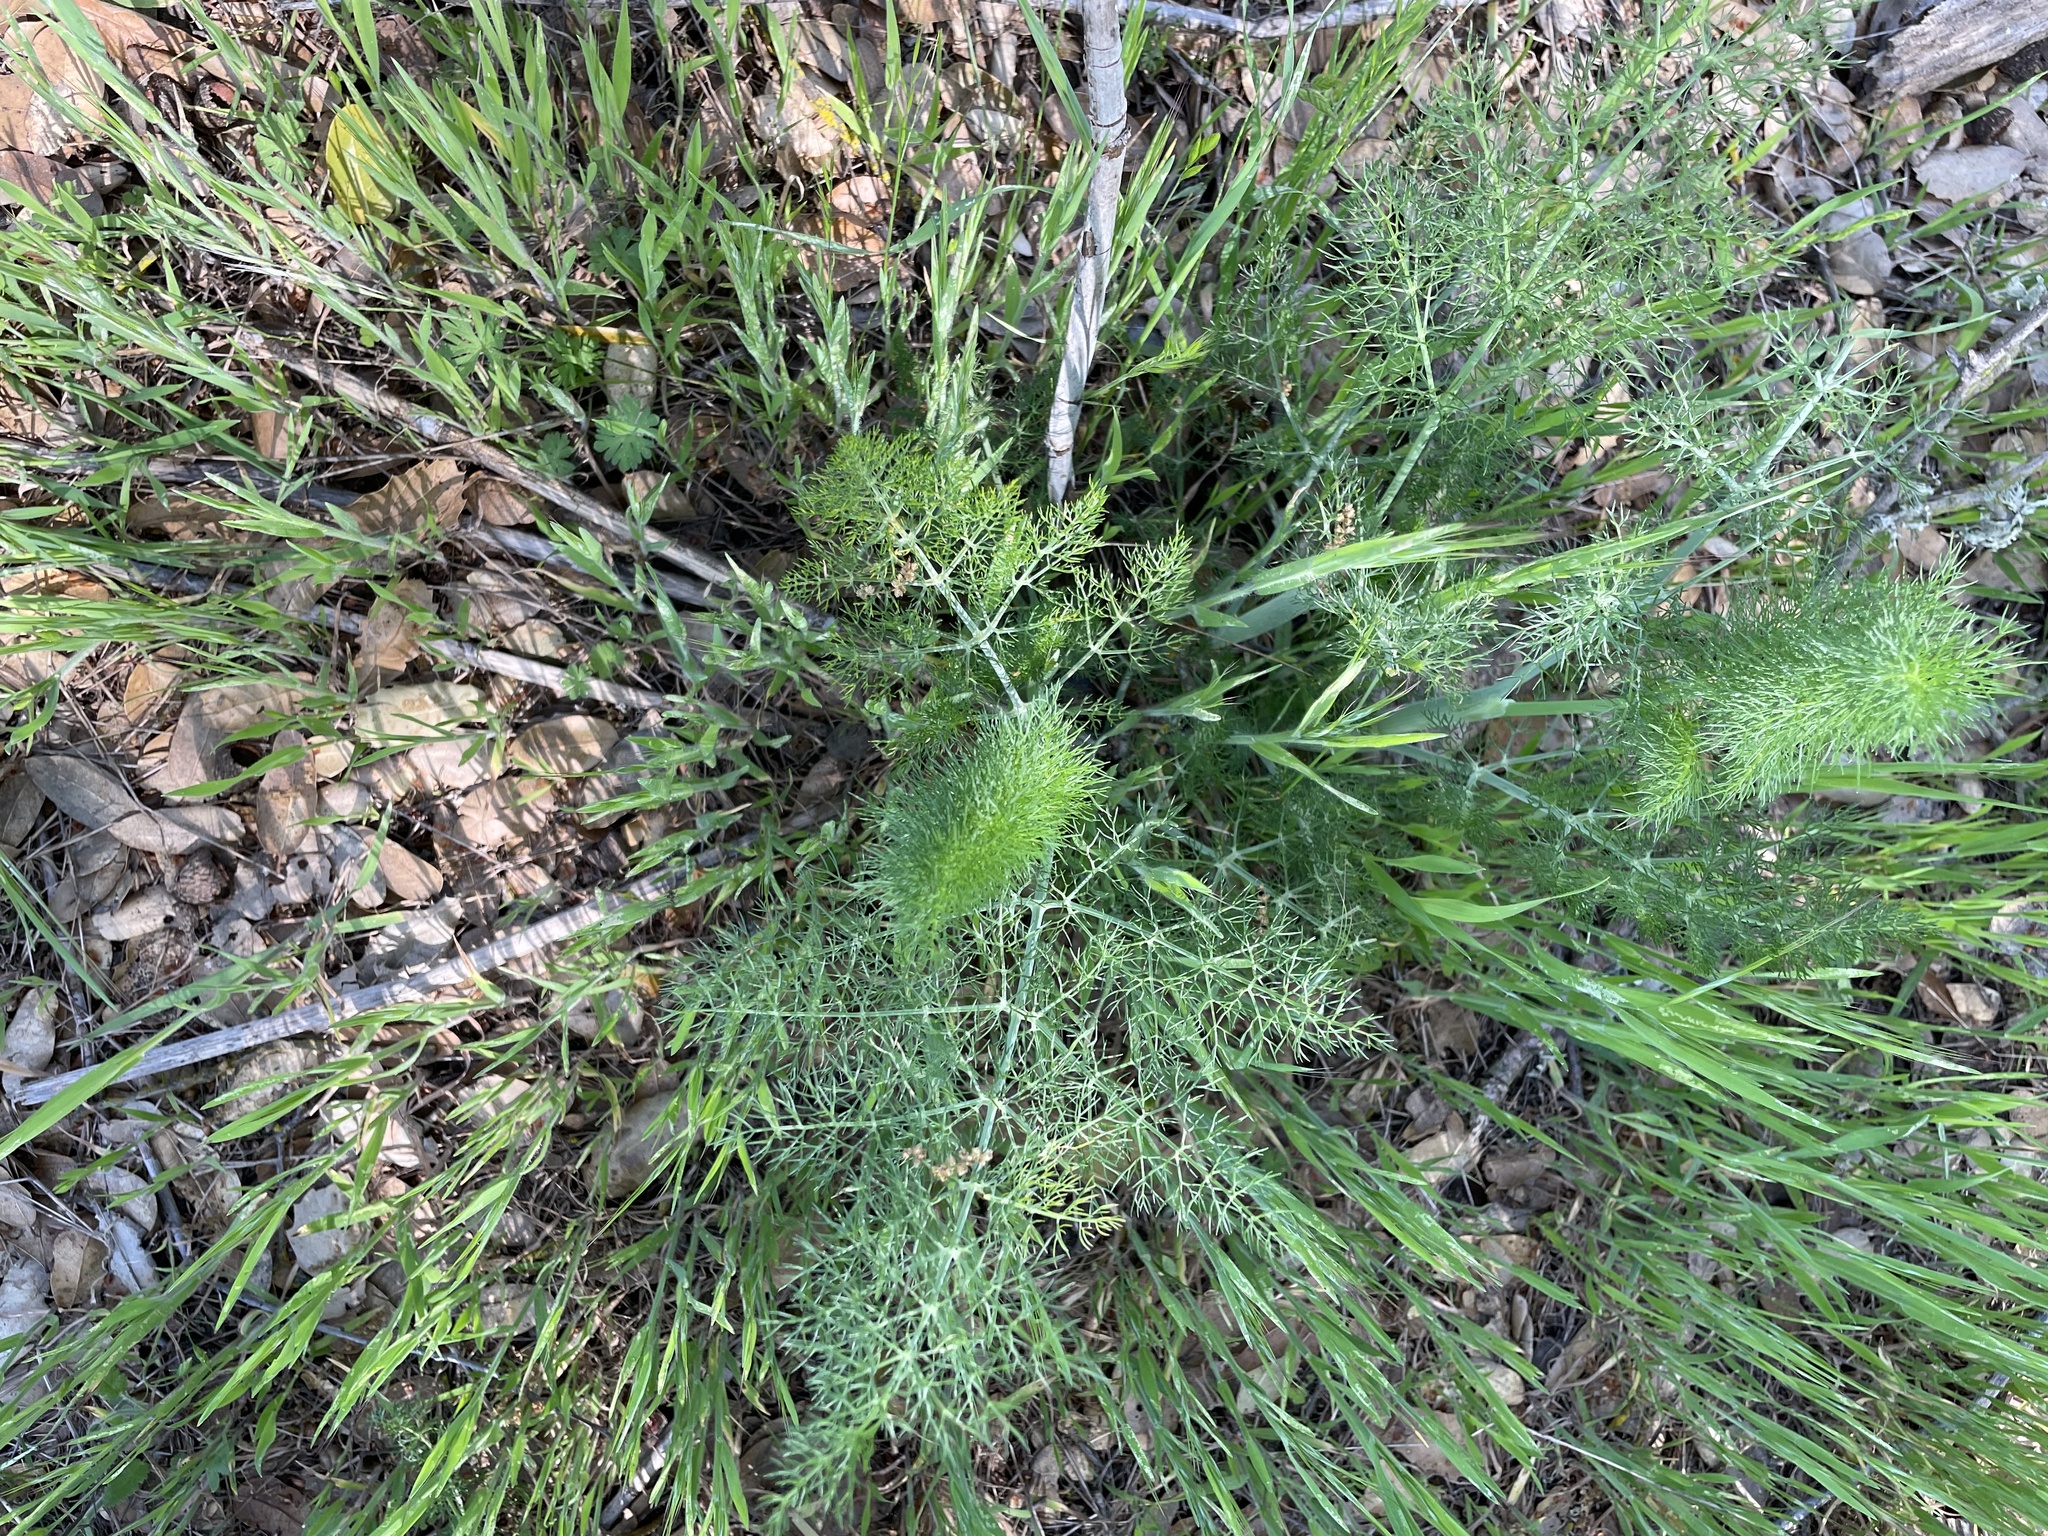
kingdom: Plantae
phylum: Tracheophyta
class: Magnoliopsida
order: Apiales
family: Apiaceae
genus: Foeniculum
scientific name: Foeniculum vulgare
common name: Fennel
